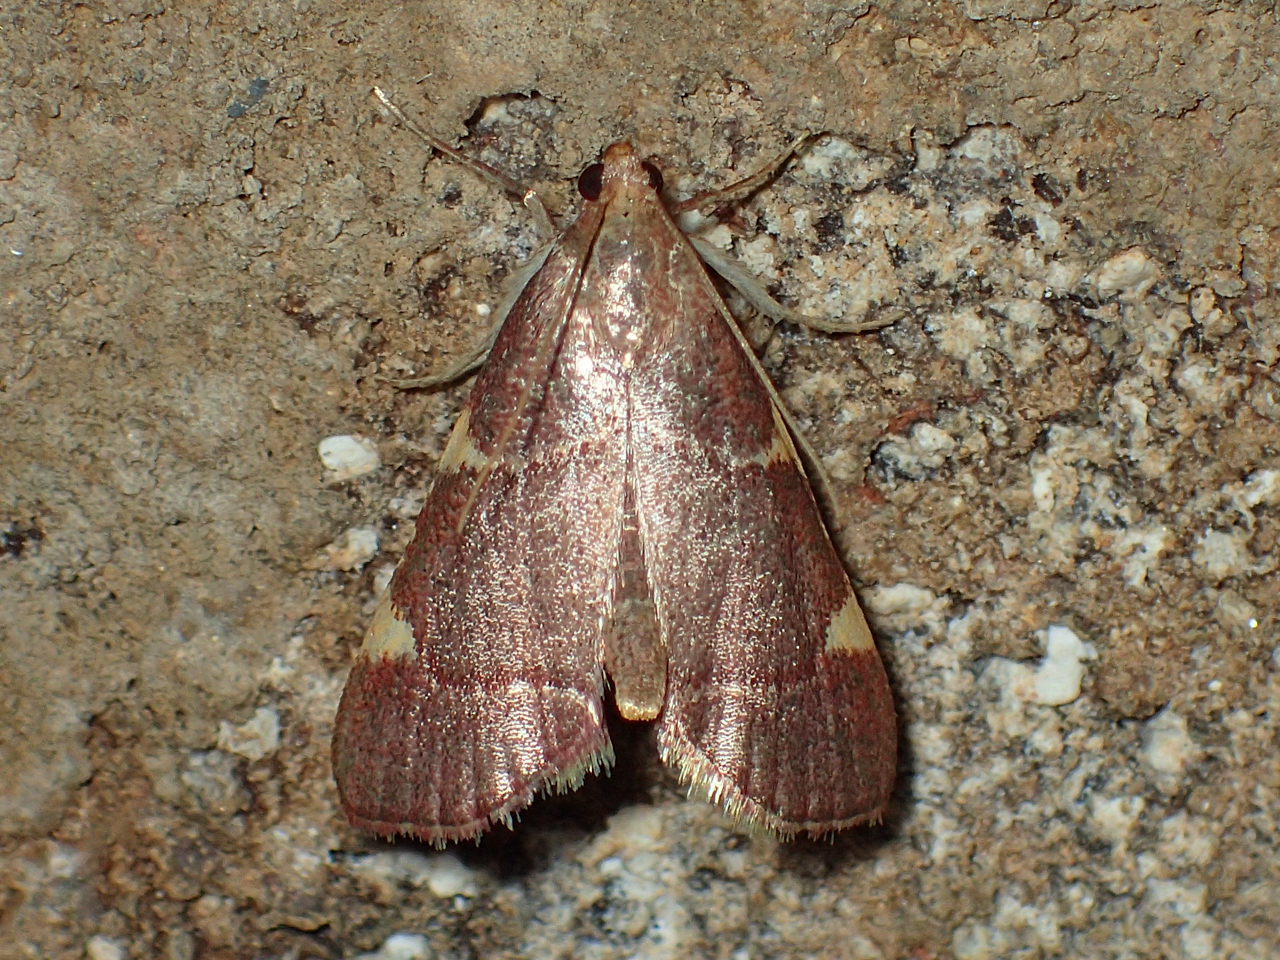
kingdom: Animalia
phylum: Arthropoda
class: Insecta
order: Lepidoptera
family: Pyralidae
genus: Hypsopygia
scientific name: Hypsopygia olinalis
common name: Yellow-fringed dolichomia moth
